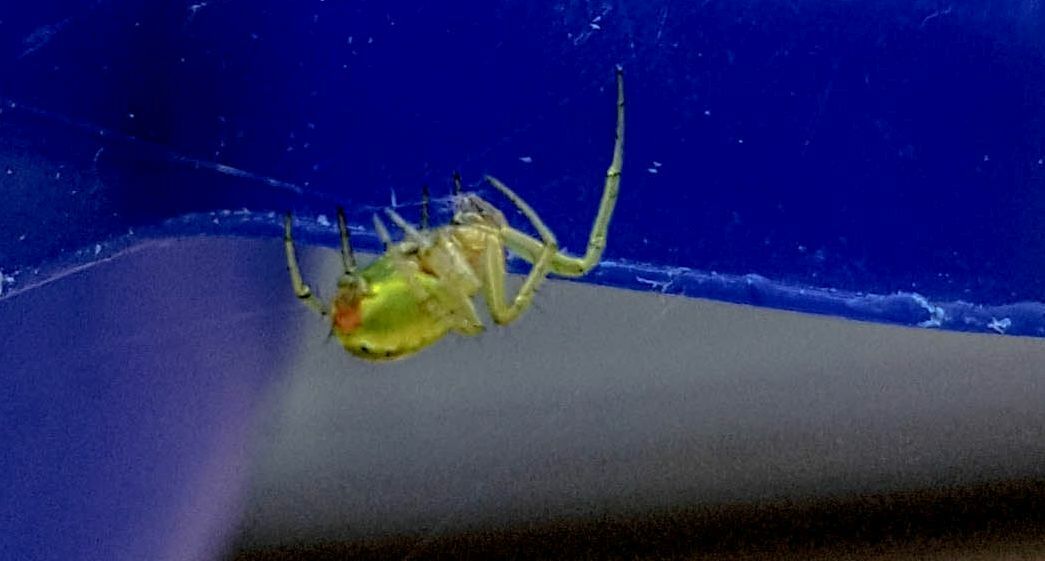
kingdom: Animalia
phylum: Arthropoda
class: Arachnida
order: Araneae
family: Araneidae
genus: Araniella
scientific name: Araniella
